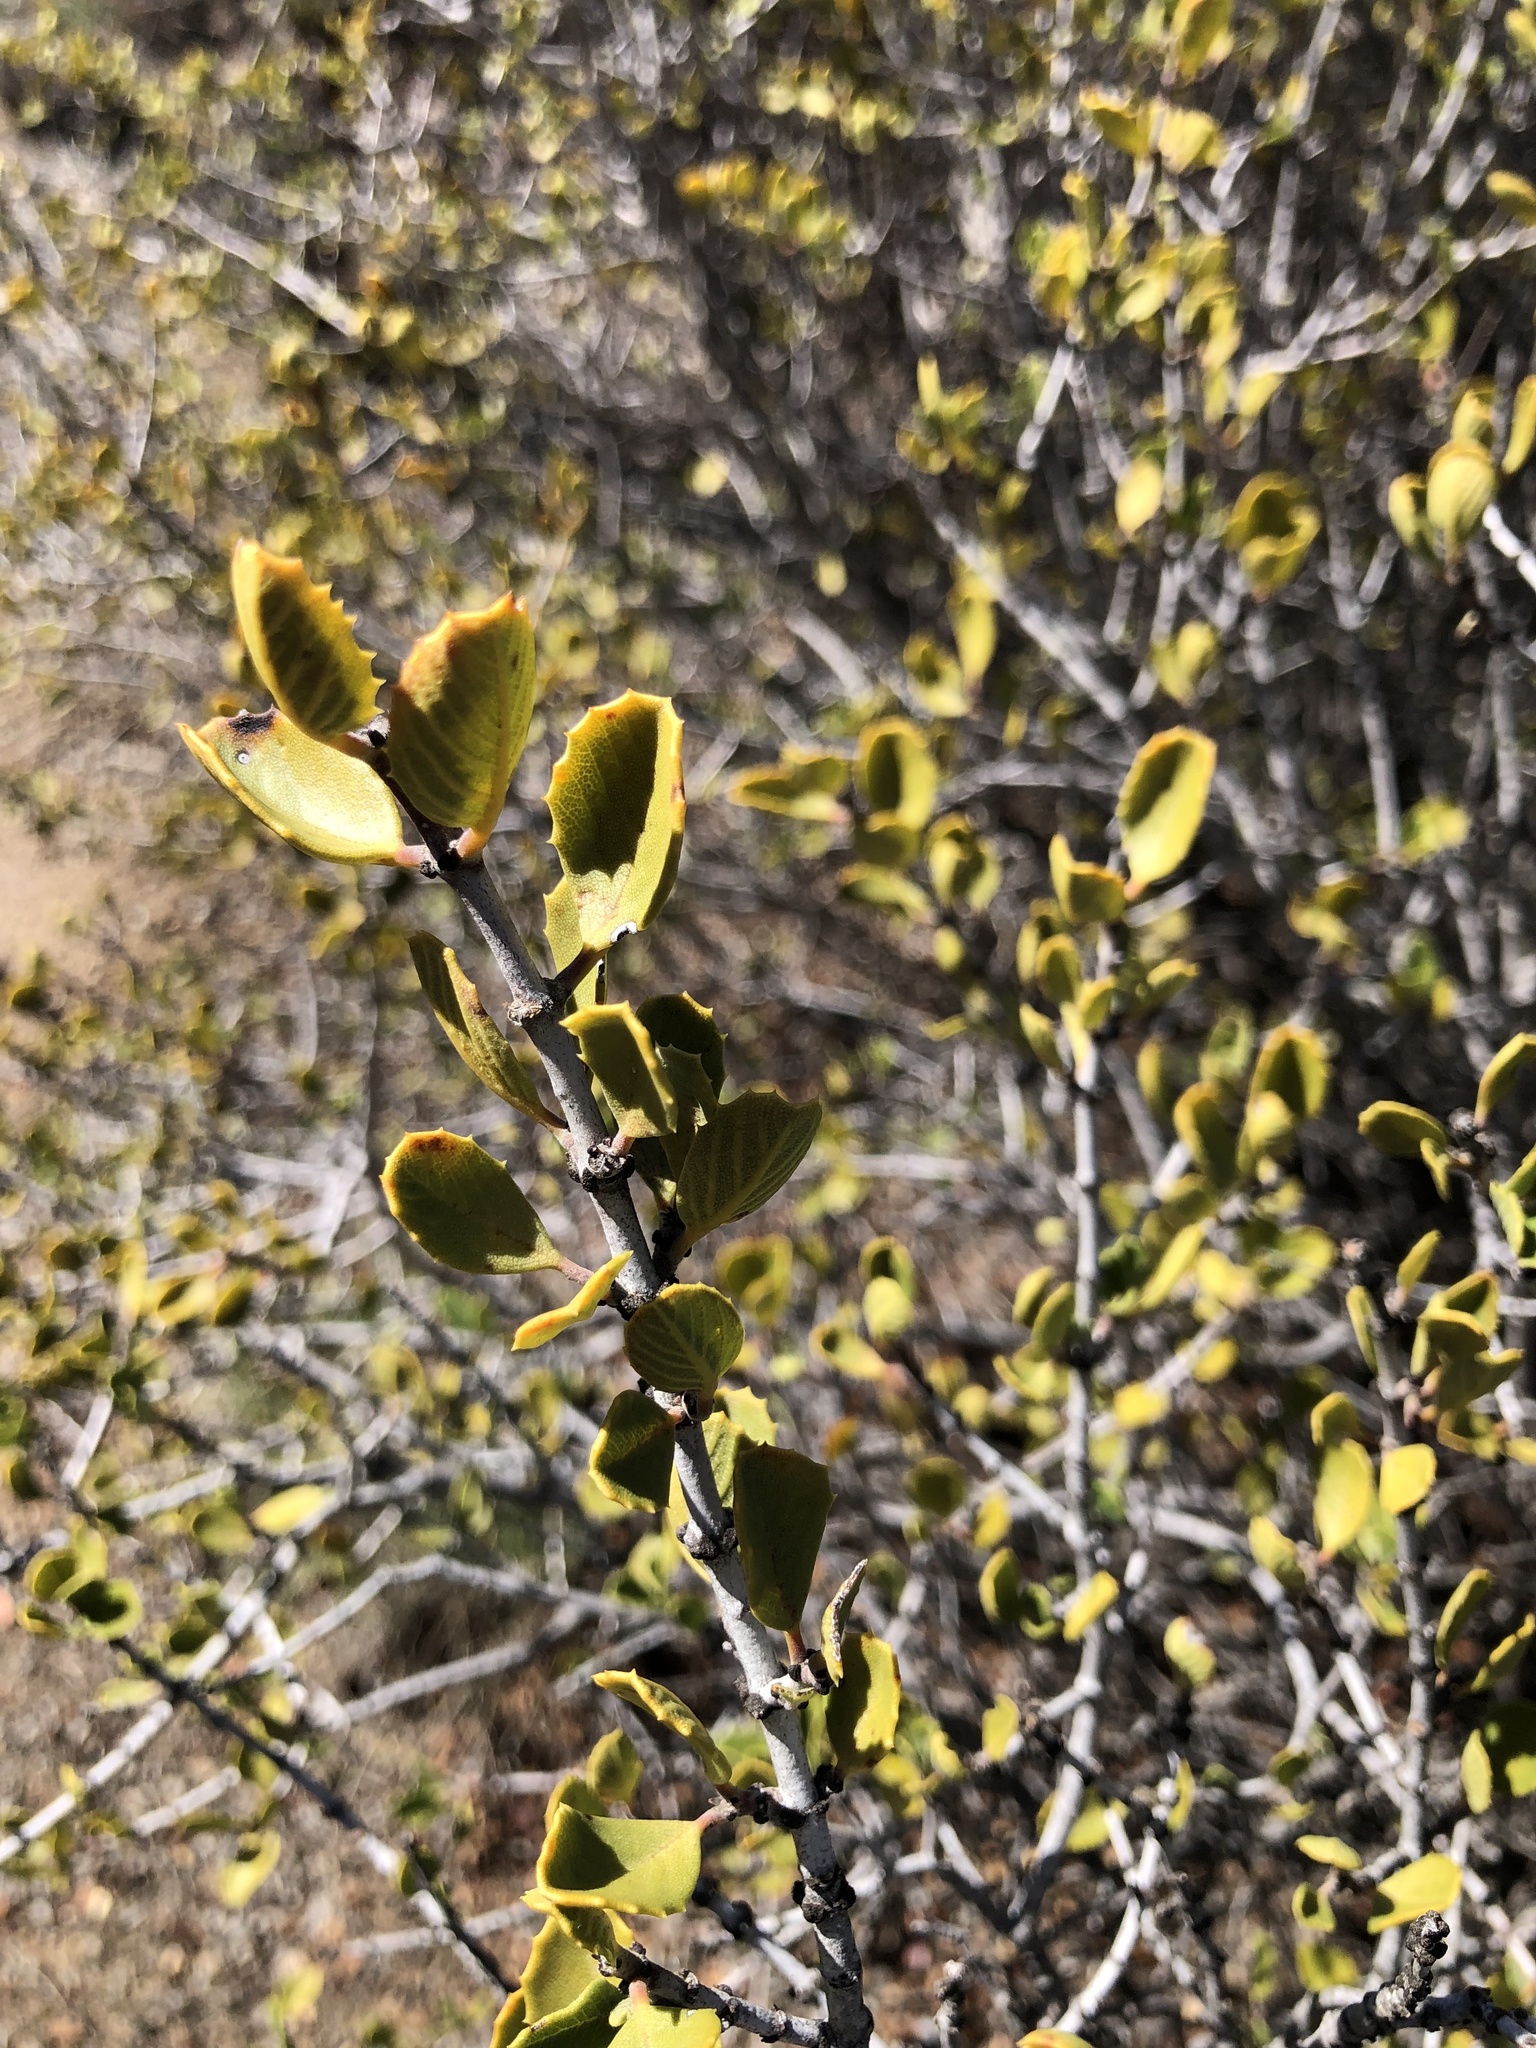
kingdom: Plantae
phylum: Tracheophyta
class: Magnoliopsida
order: Rosales
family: Rhamnaceae
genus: Ceanothus
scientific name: Ceanothus perplexans
